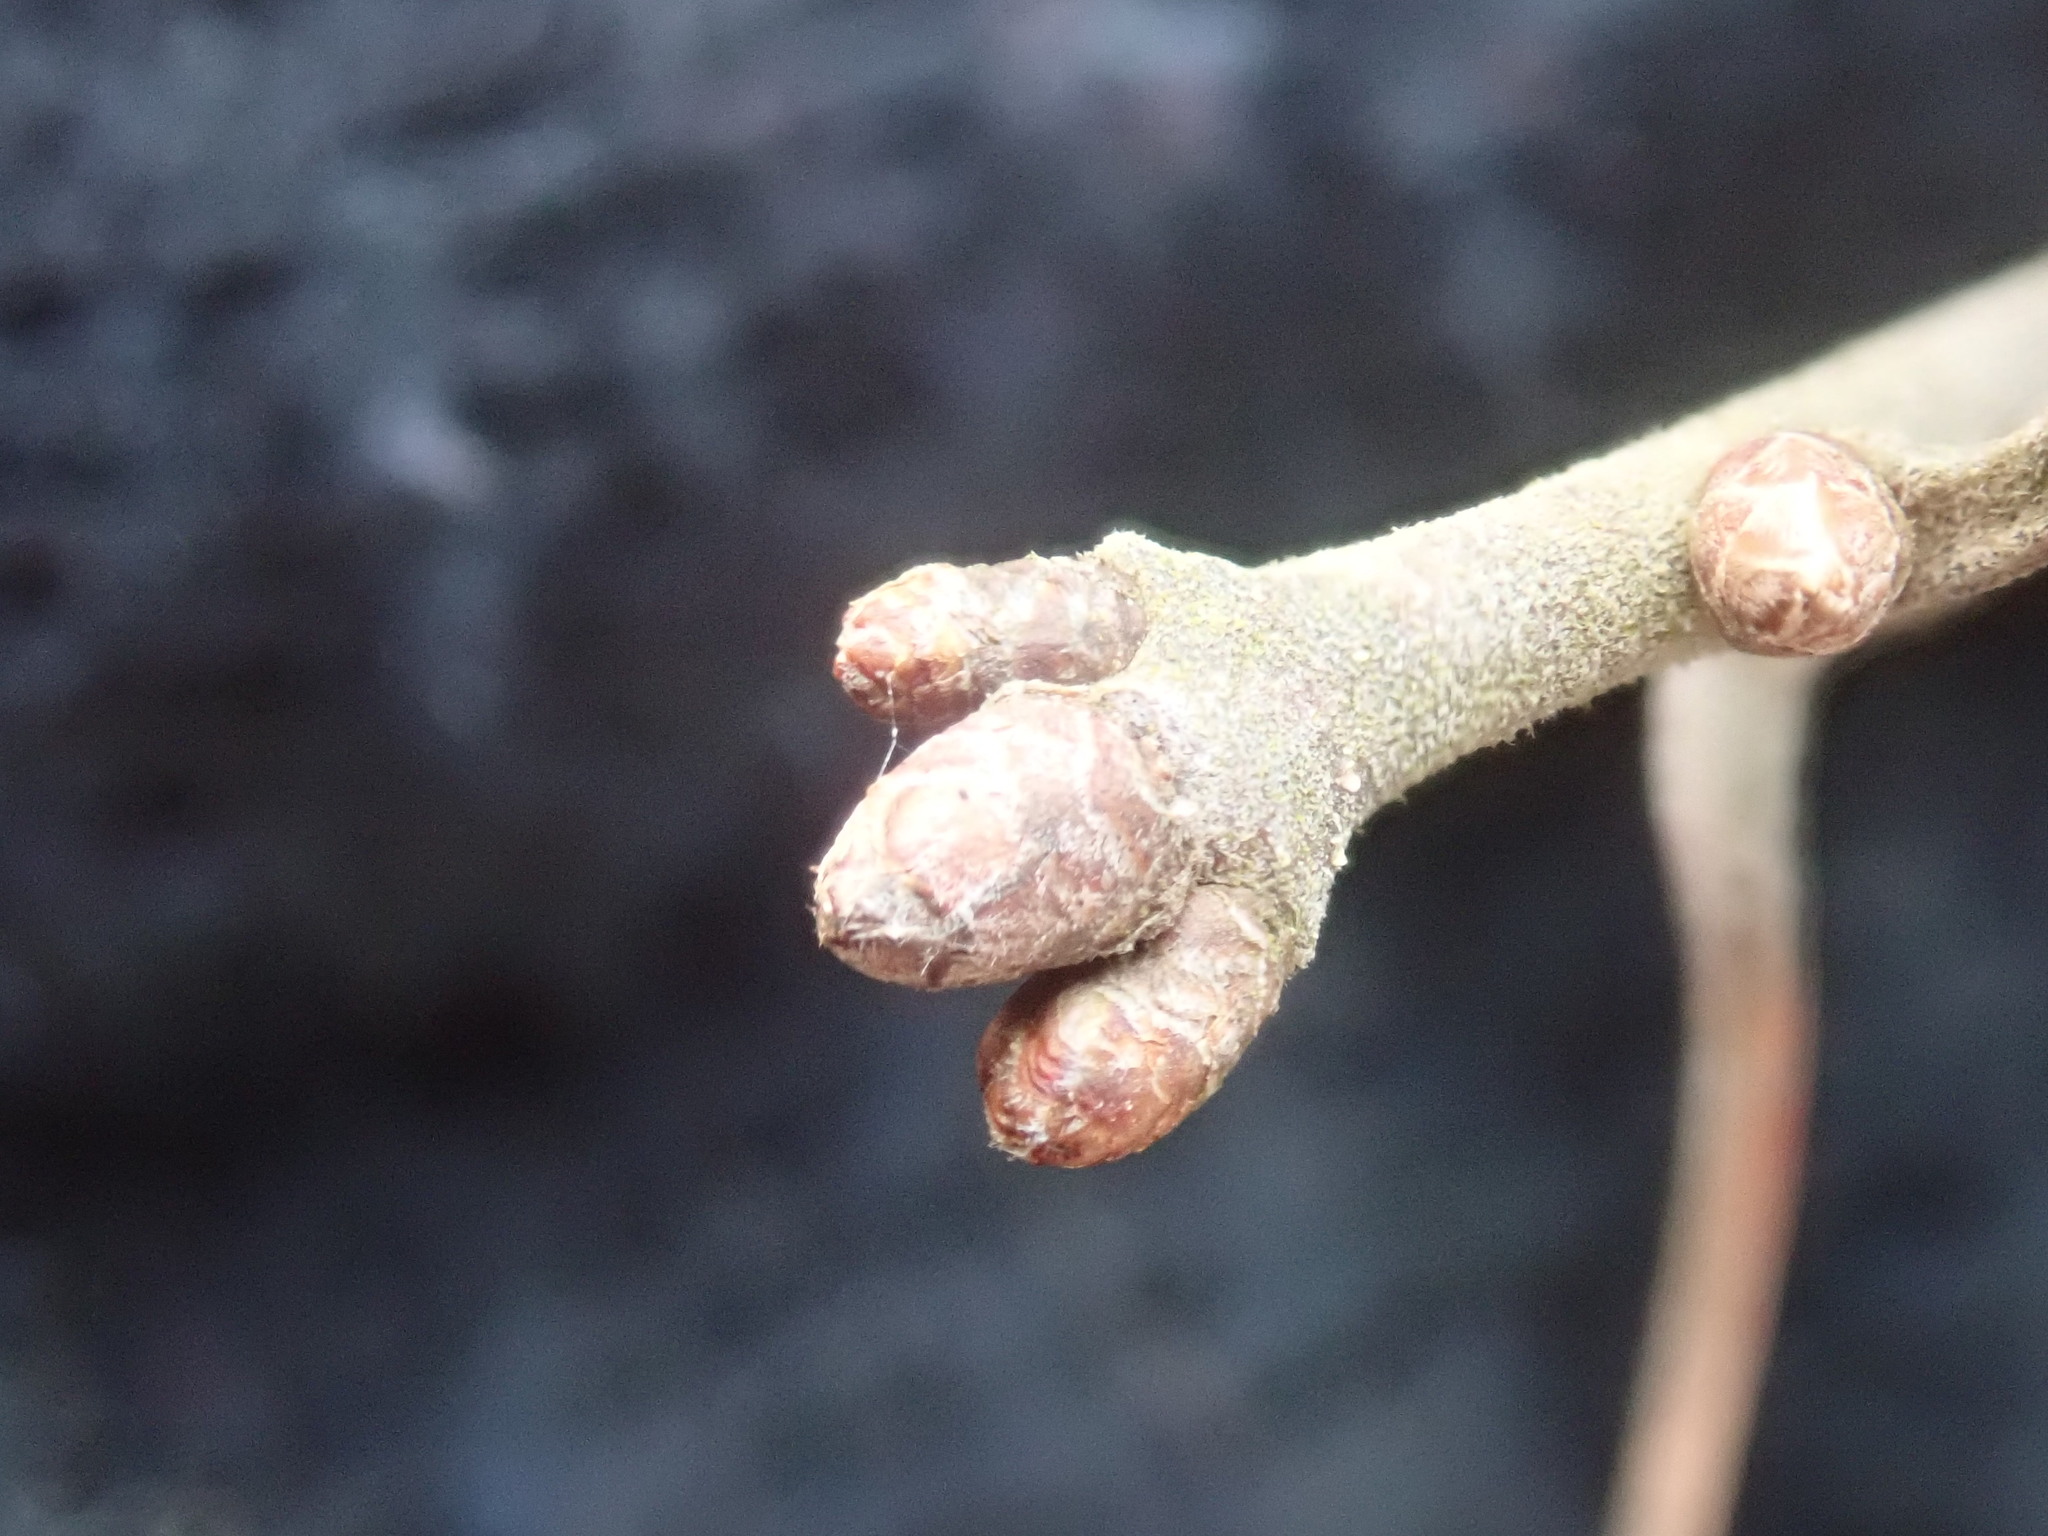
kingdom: Plantae
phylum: Tracheophyta
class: Magnoliopsida
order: Fagales
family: Fagaceae
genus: Quercus
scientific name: Quercus ilicifolia
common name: Bear oak
